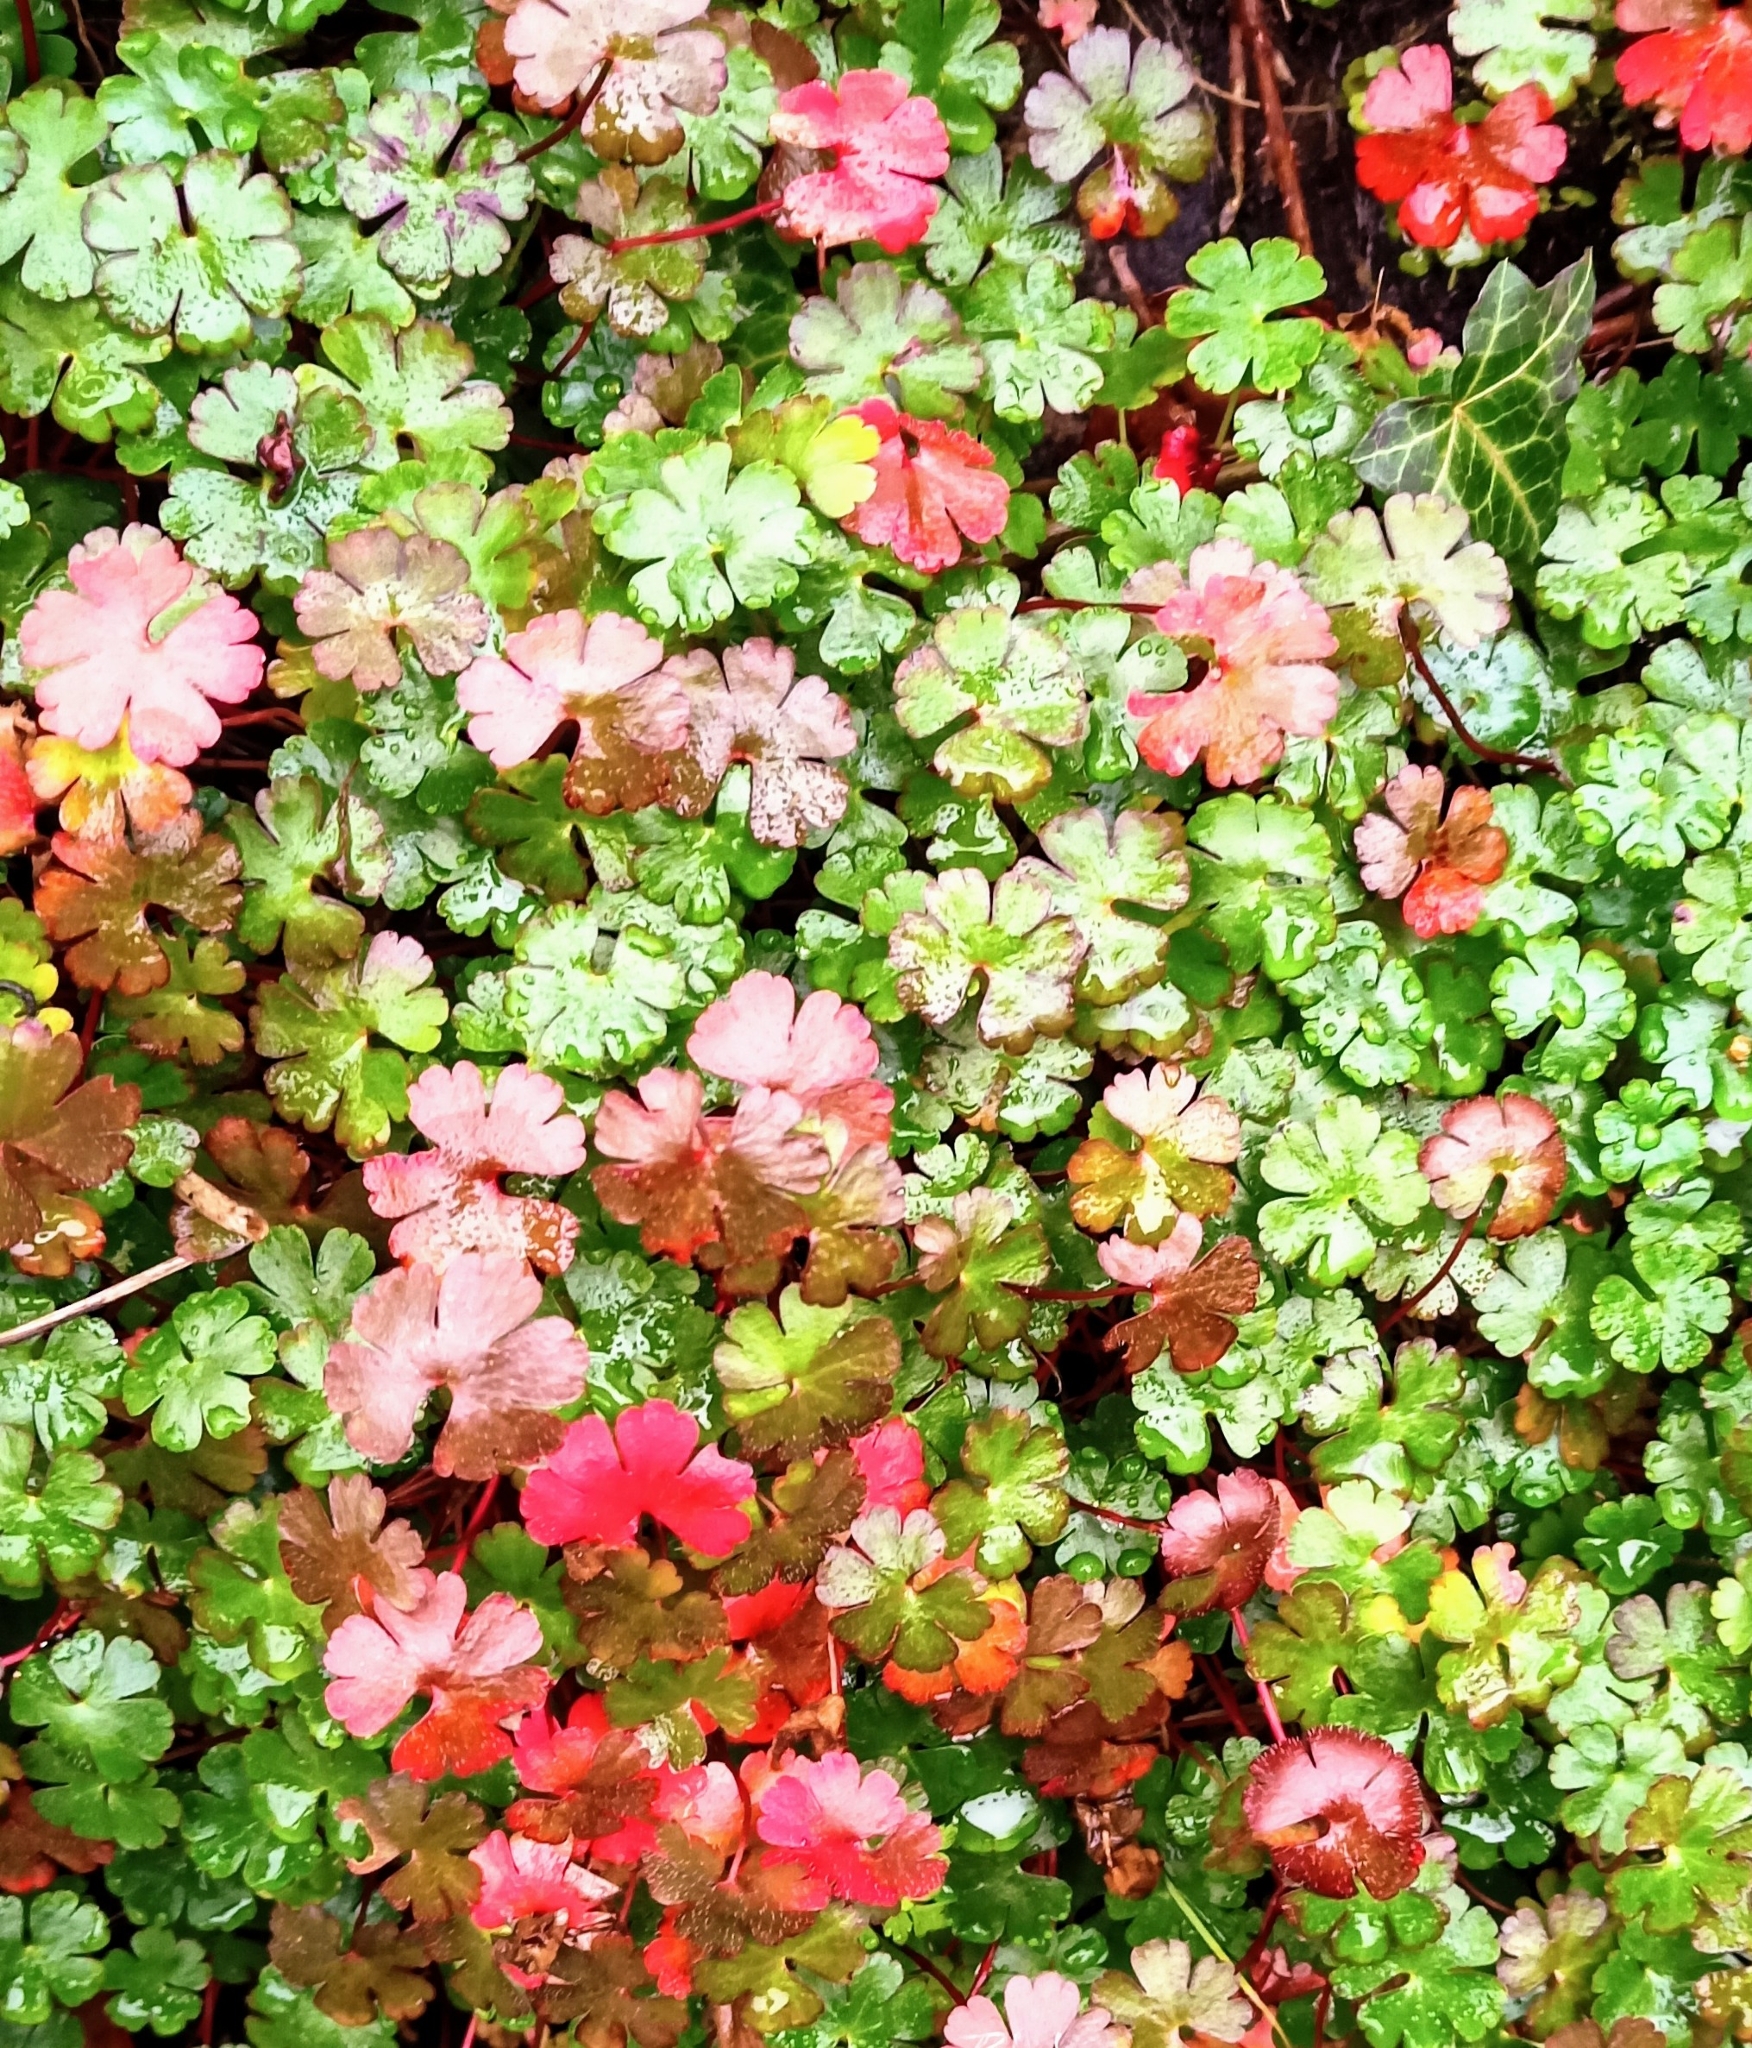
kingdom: Plantae
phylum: Tracheophyta
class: Magnoliopsida
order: Geraniales
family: Geraniaceae
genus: Geranium
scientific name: Geranium lucidum
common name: Shining crane's-bill
